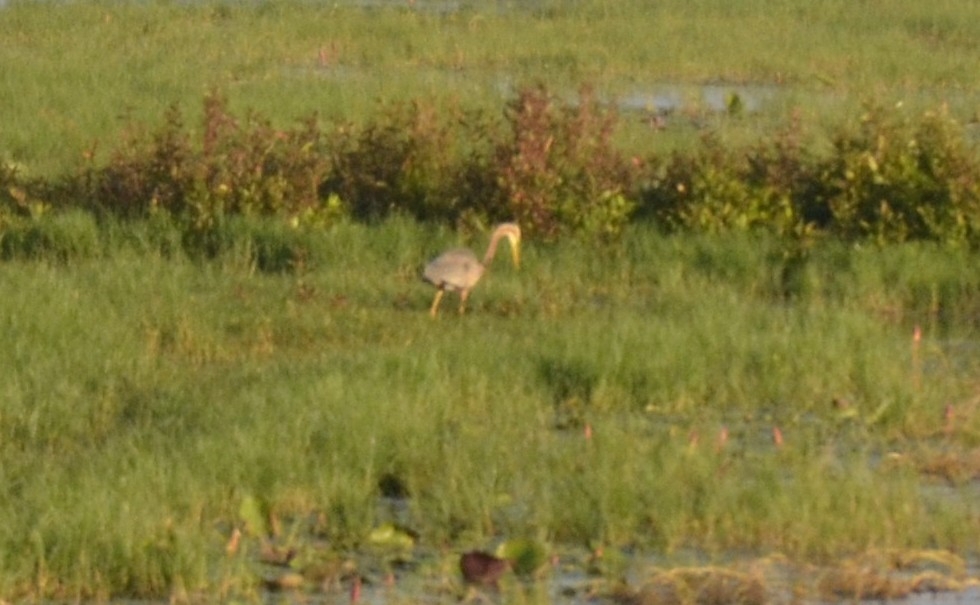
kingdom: Animalia
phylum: Chordata
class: Aves
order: Pelecaniformes
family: Ardeidae
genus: Ardea
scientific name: Ardea purpurea
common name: Purple heron
